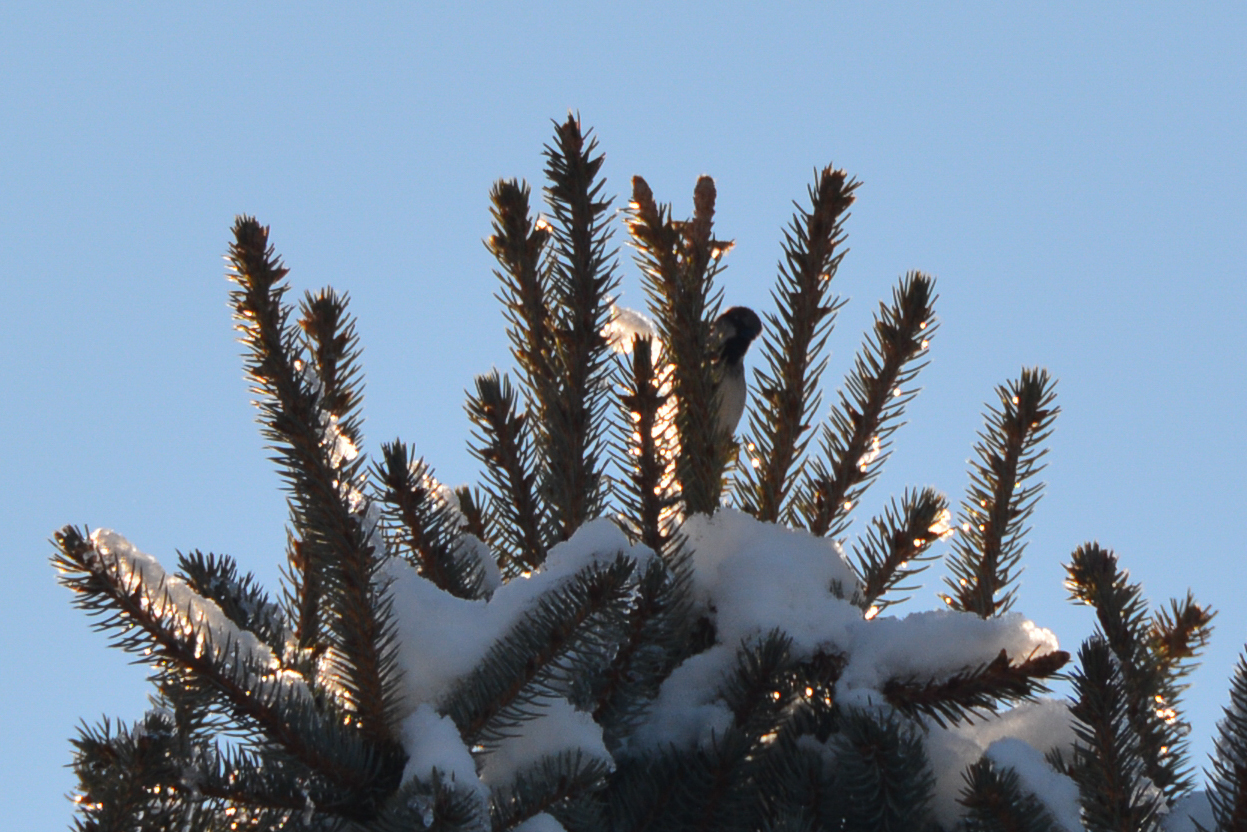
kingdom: Animalia
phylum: Chordata
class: Aves
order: Passeriformes
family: Passeridae
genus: Passer
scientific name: Passer domesticus
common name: House sparrow
